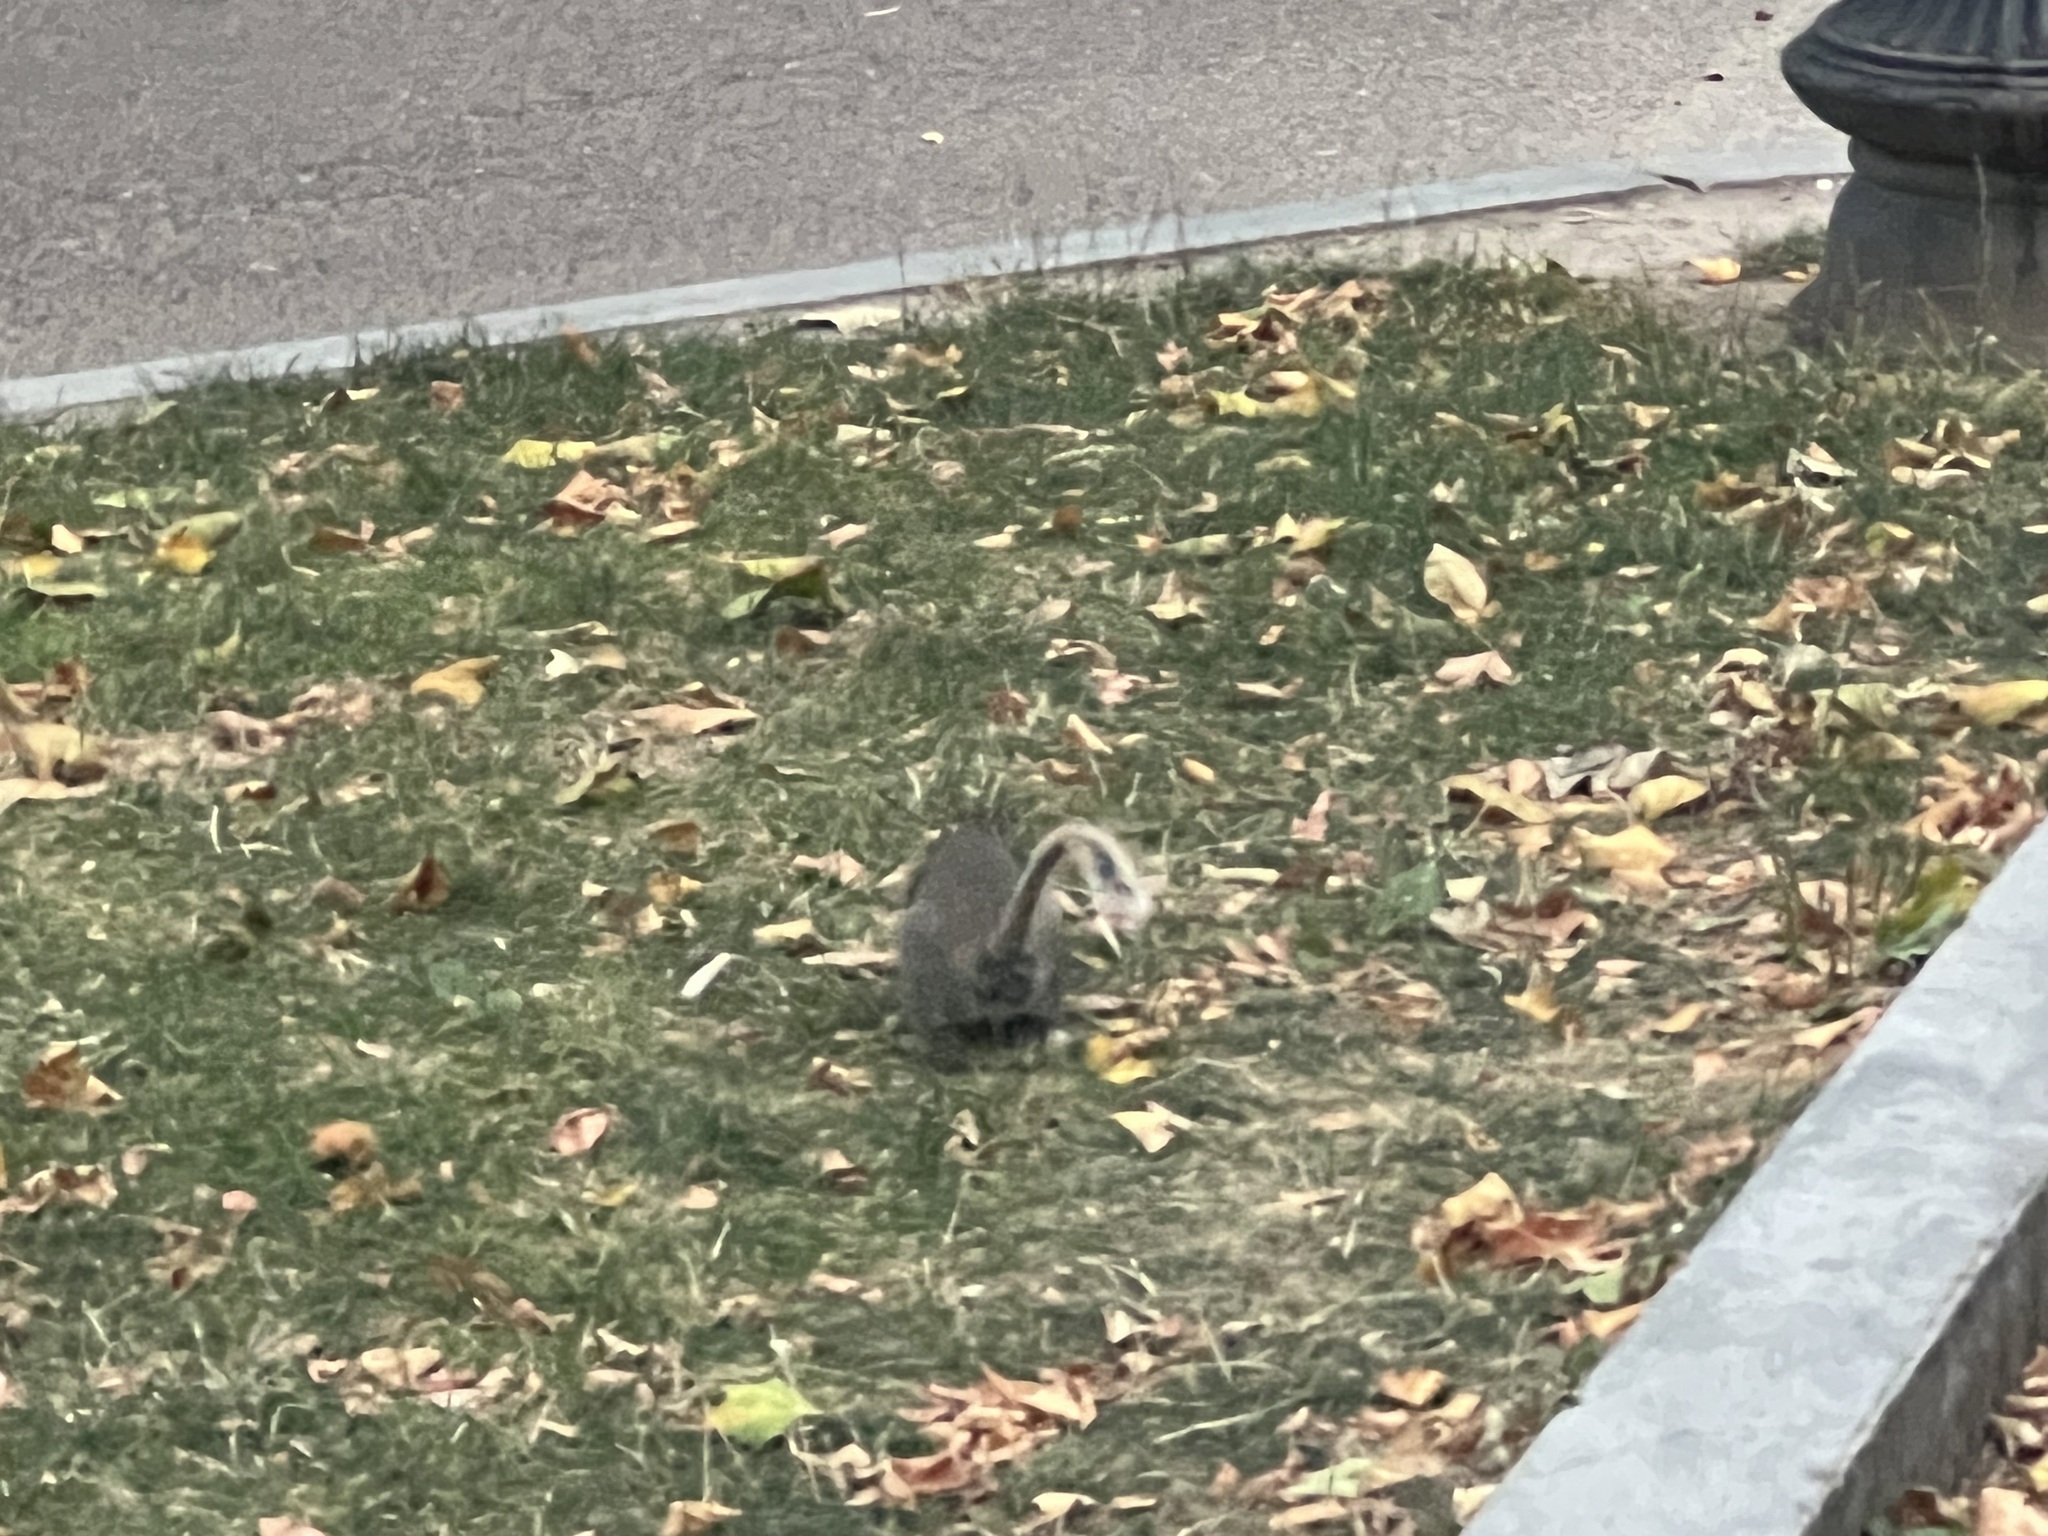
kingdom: Animalia
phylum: Chordata
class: Mammalia
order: Rodentia
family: Sciuridae
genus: Sciurus
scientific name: Sciurus carolinensis
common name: Eastern gray squirrel
